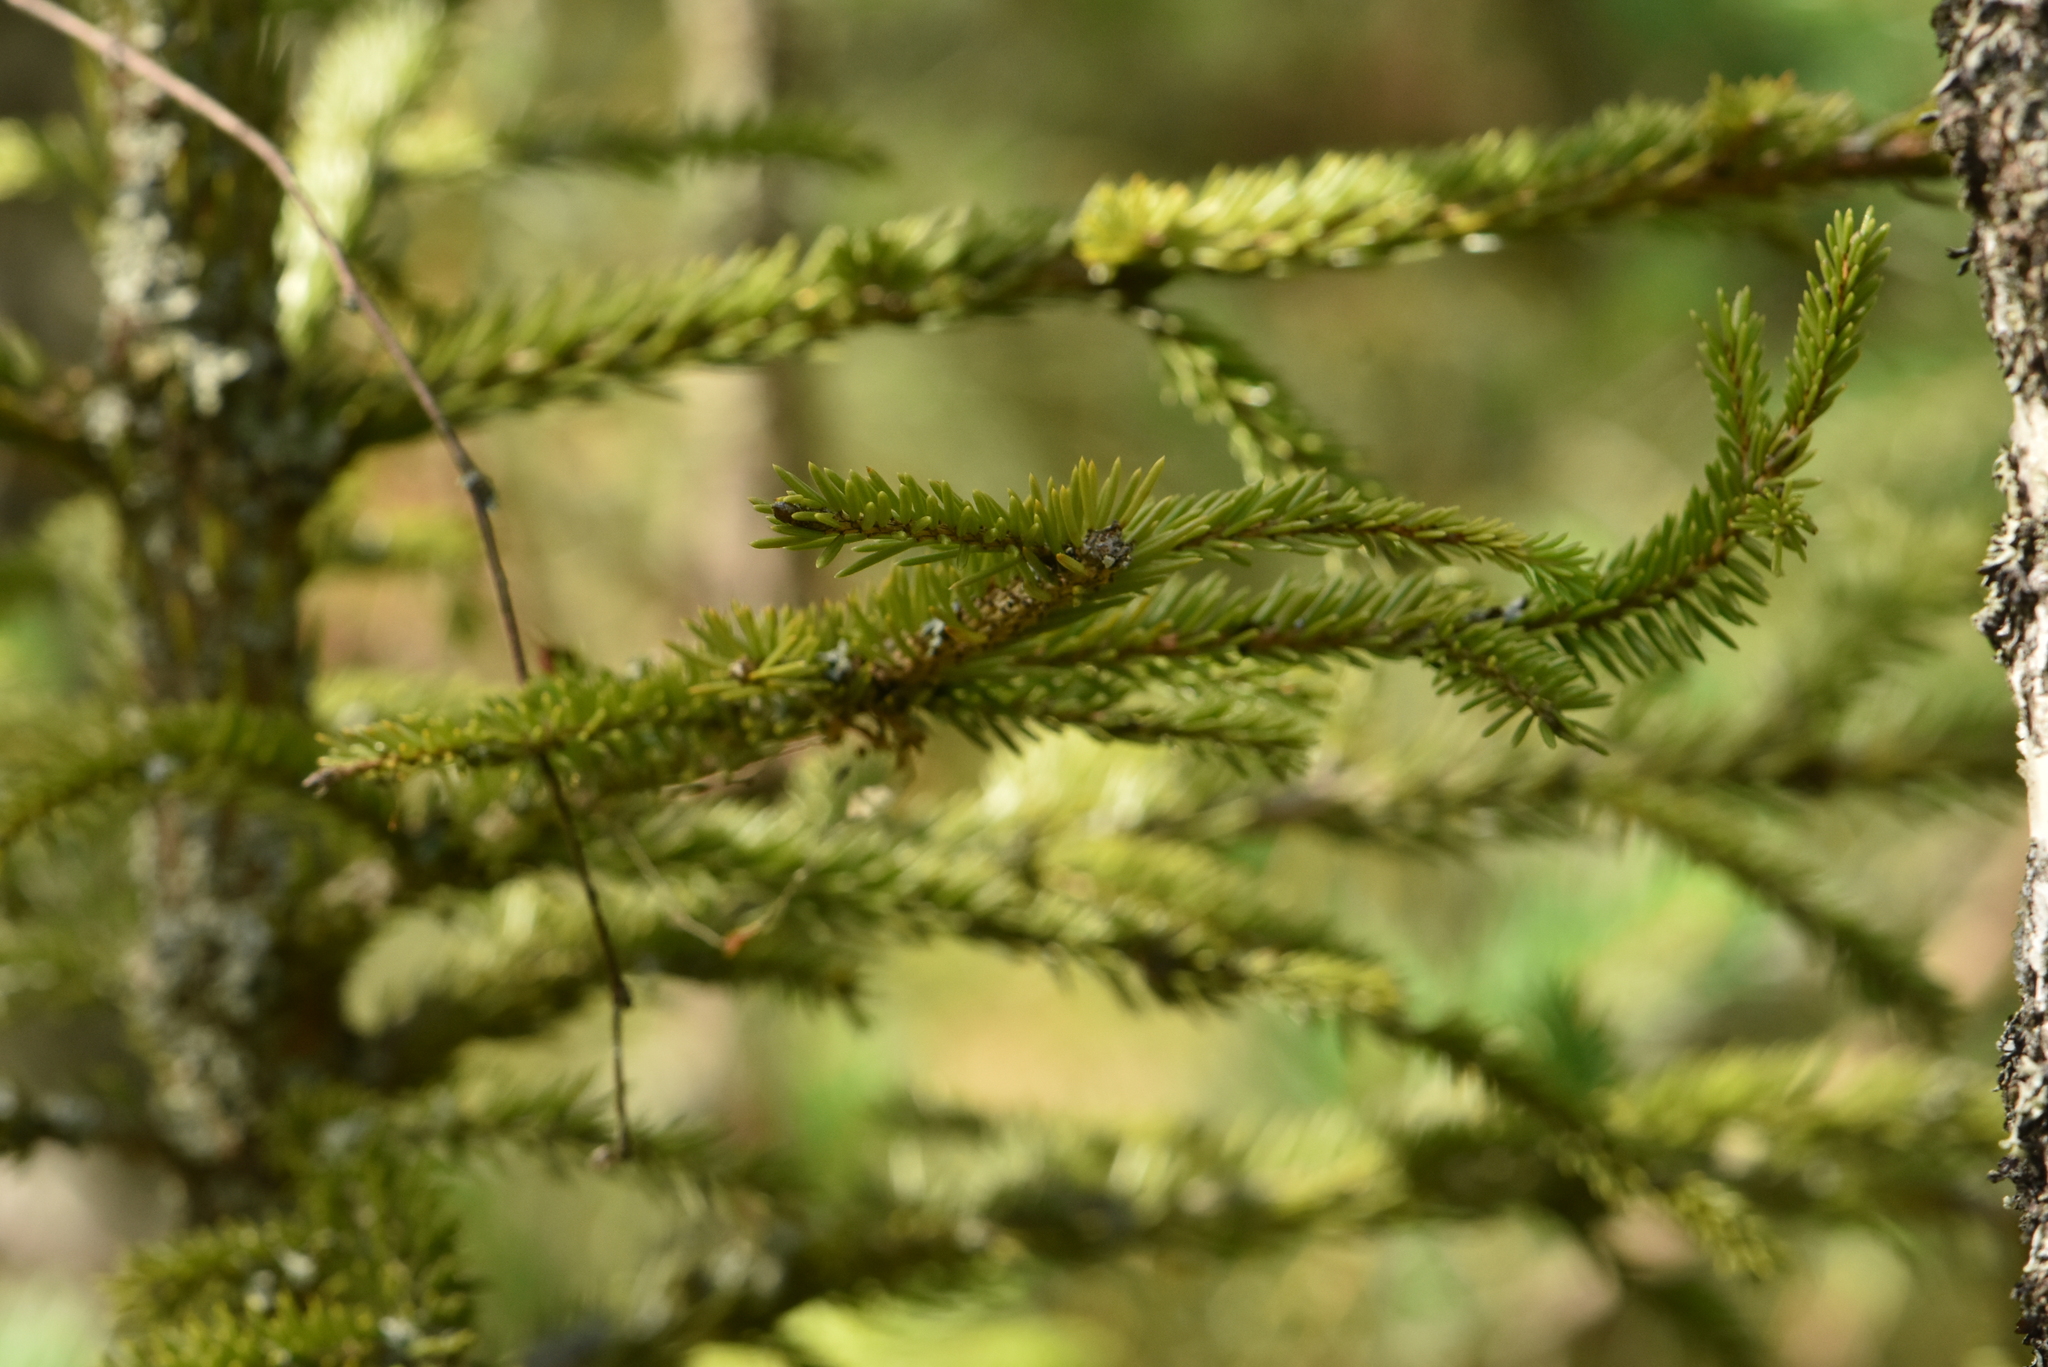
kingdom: Plantae
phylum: Tracheophyta
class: Pinopsida
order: Pinales
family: Pinaceae
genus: Picea
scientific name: Picea abies
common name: Norway spruce
